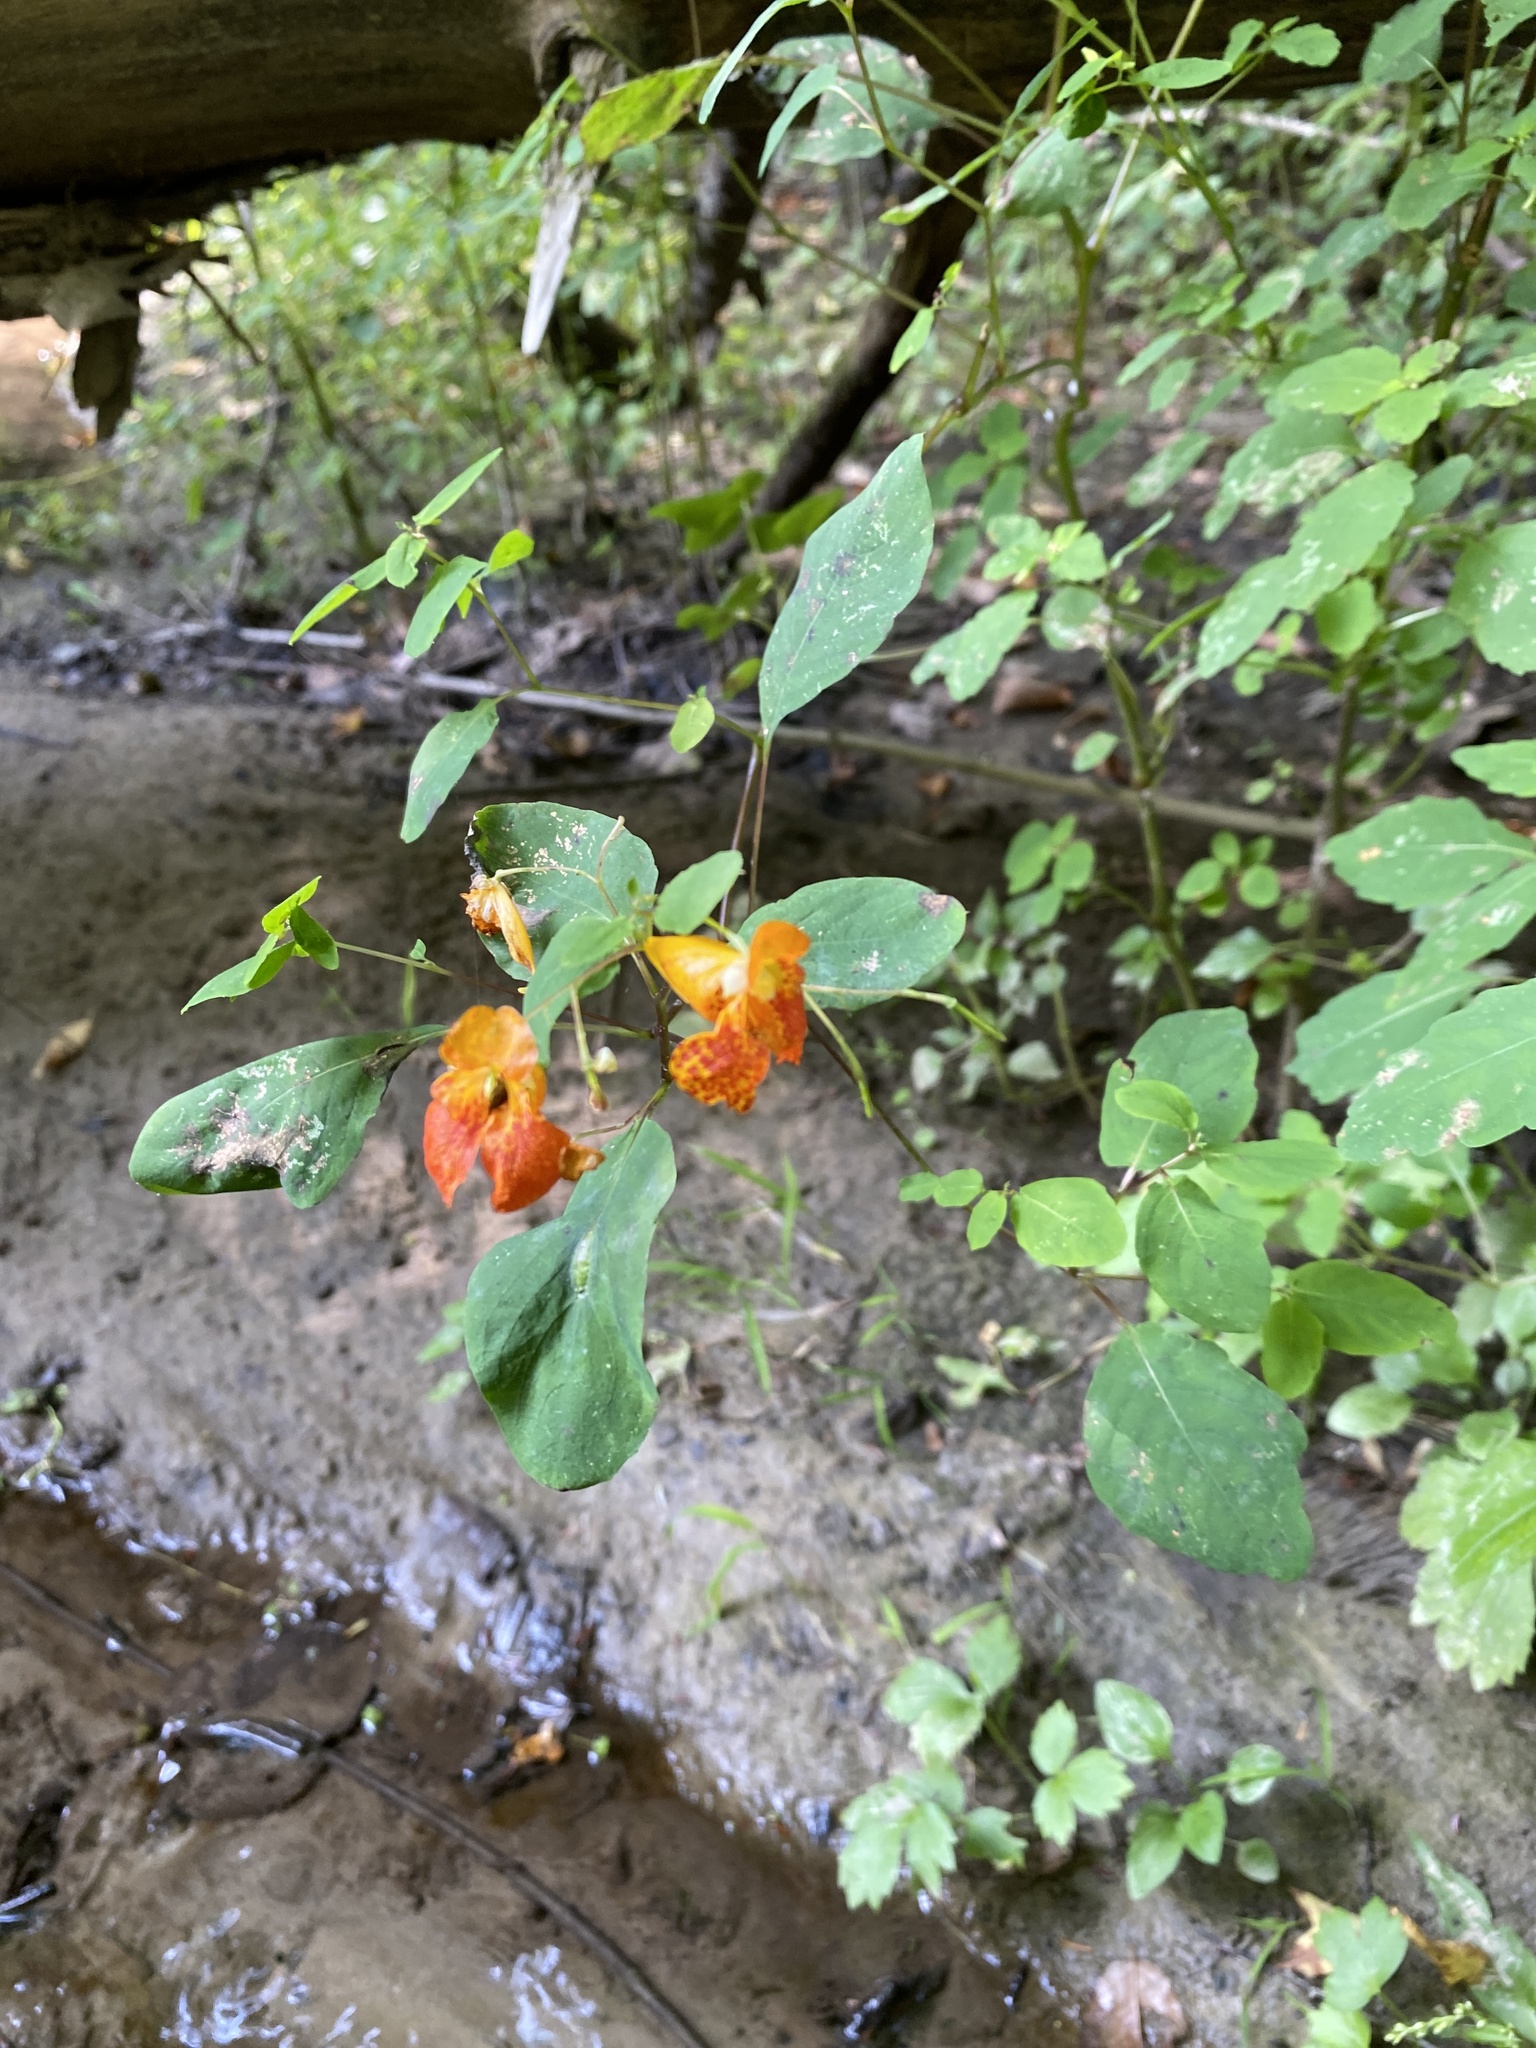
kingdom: Plantae
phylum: Tracheophyta
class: Magnoliopsida
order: Ericales
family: Balsaminaceae
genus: Impatiens
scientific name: Impatiens capensis
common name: Orange balsam
